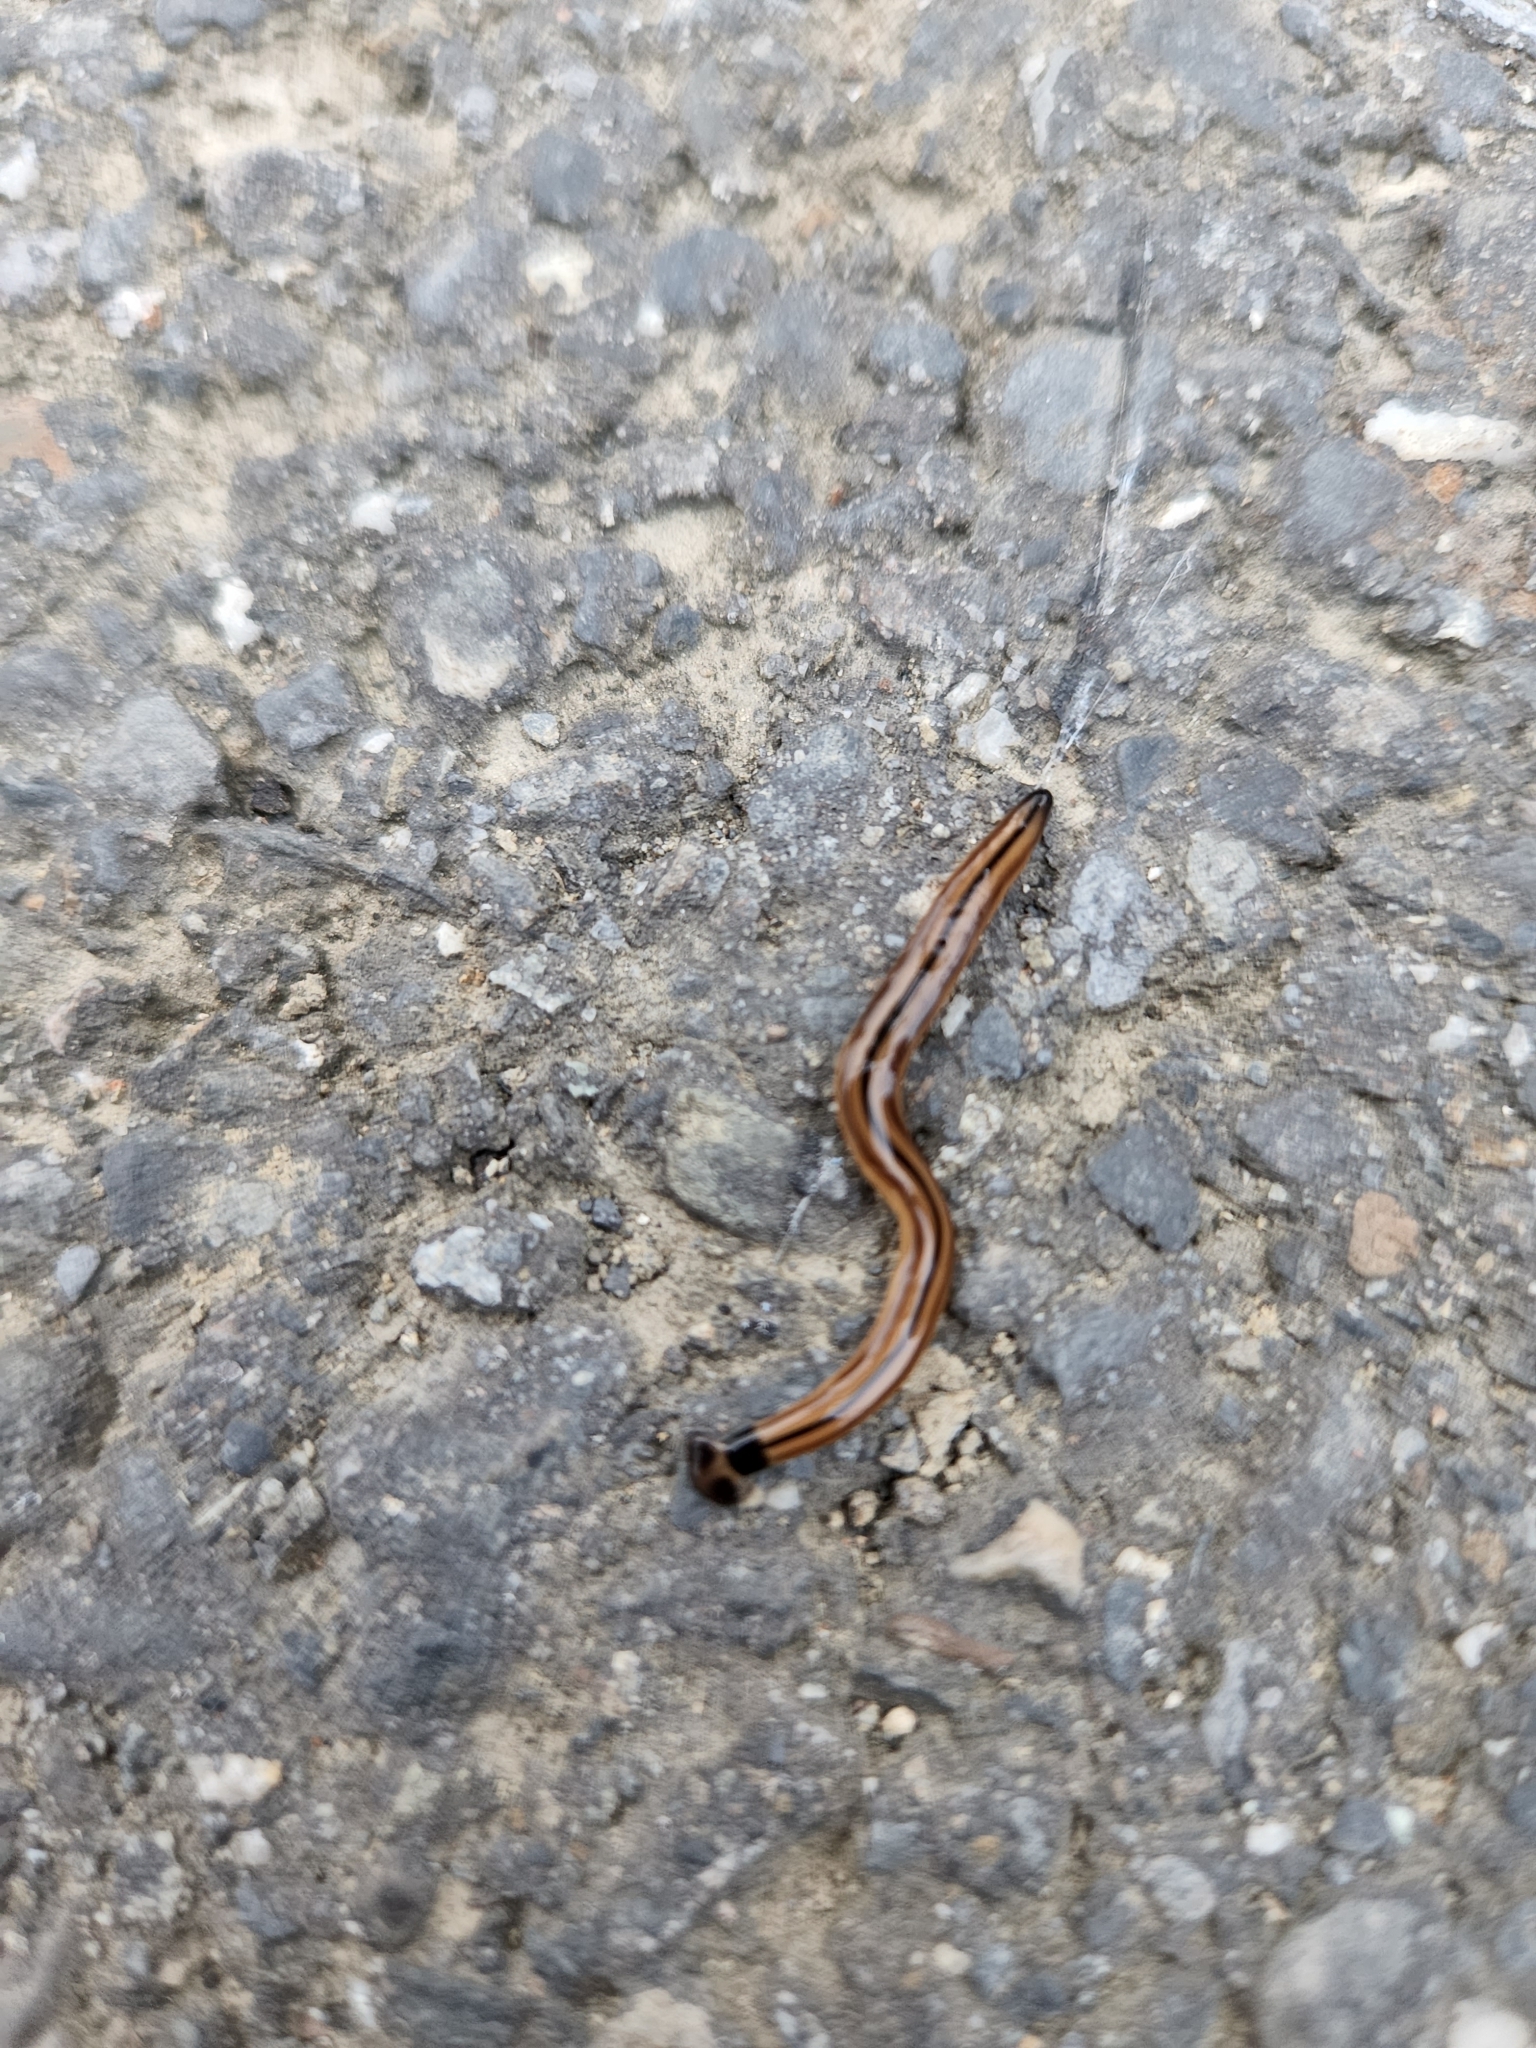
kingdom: Animalia
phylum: Platyhelminthes
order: Tricladida
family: Geoplanidae
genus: Bipalium
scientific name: Bipalium vagum
